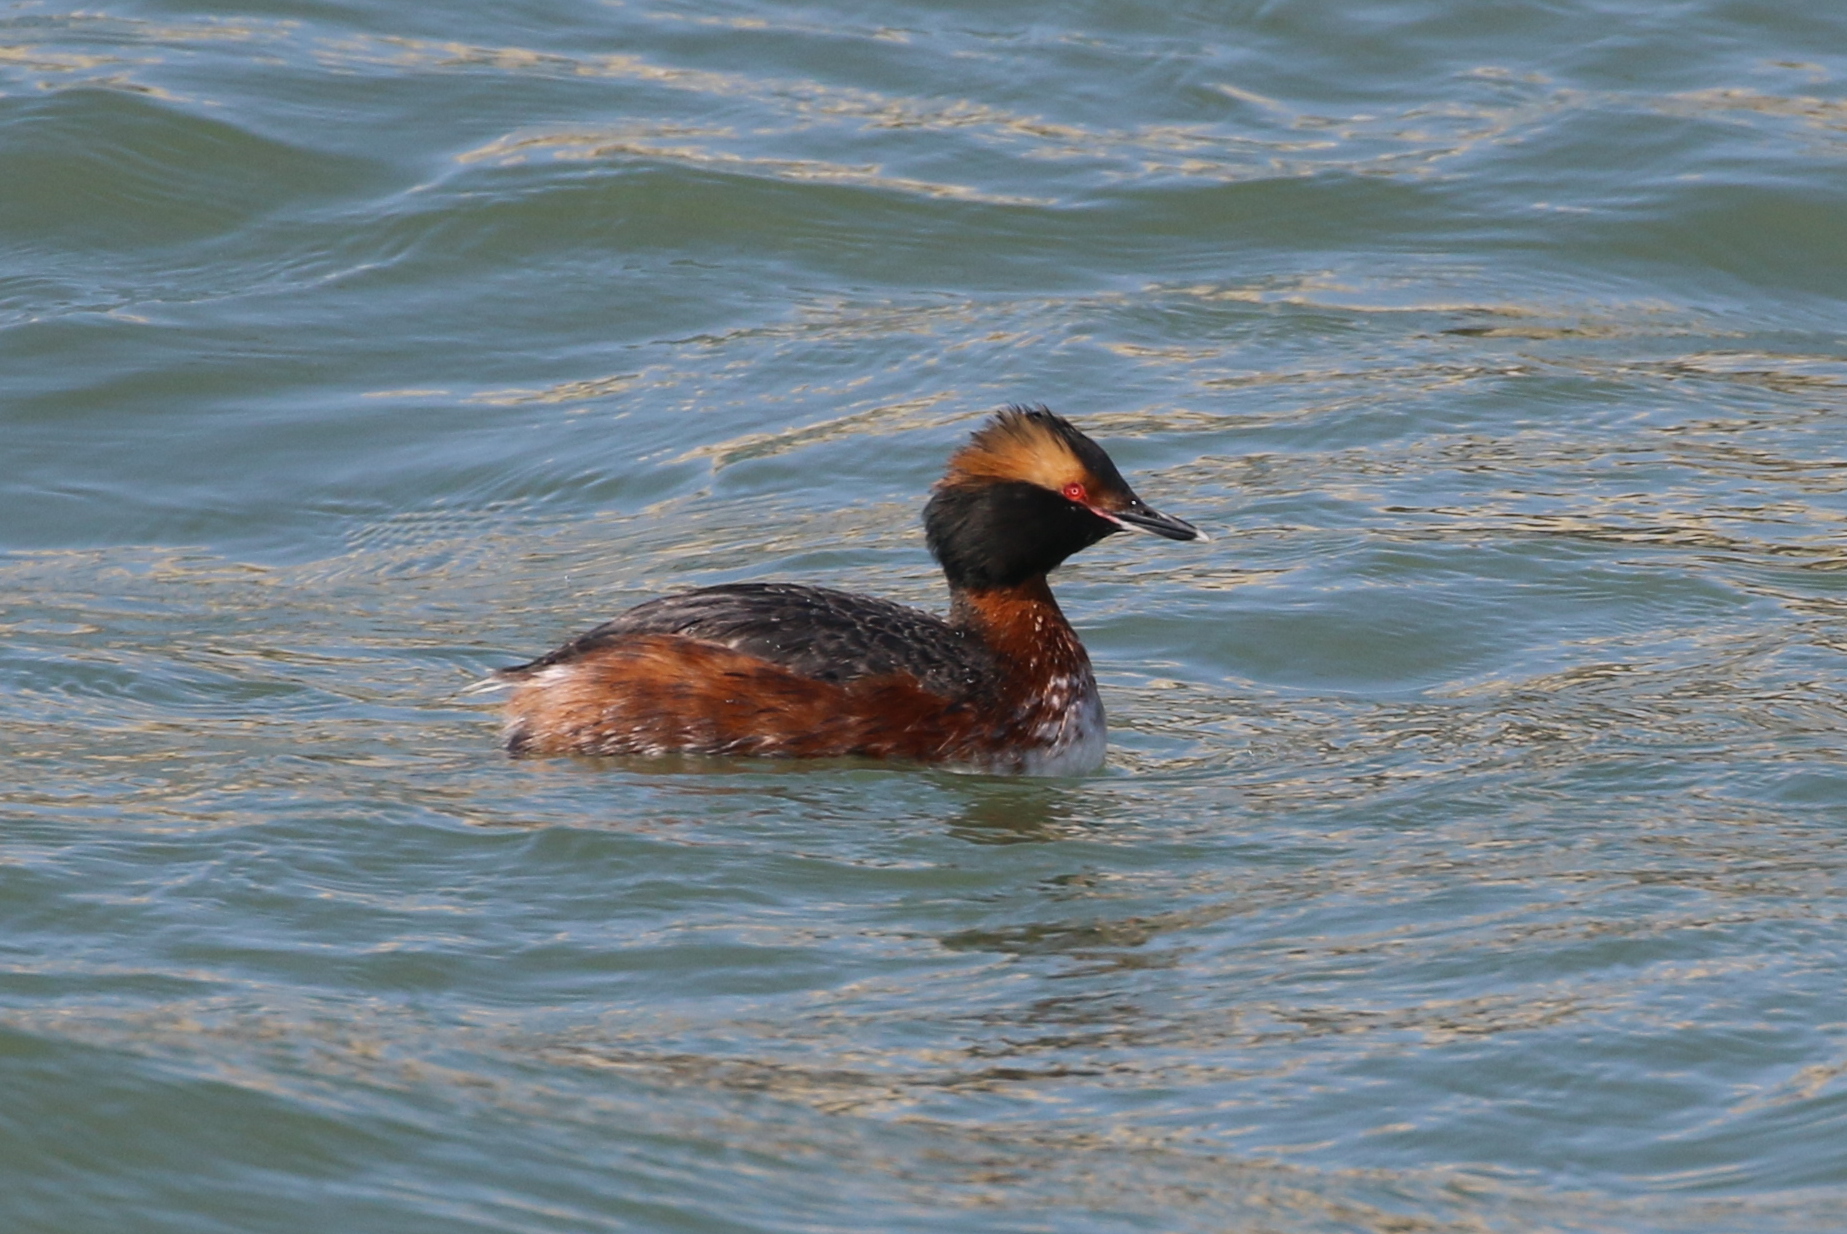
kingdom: Animalia
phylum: Chordata
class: Aves
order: Podicipediformes
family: Podicipedidae
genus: Podiceps
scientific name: Podiceps auritus
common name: Horned grebe
